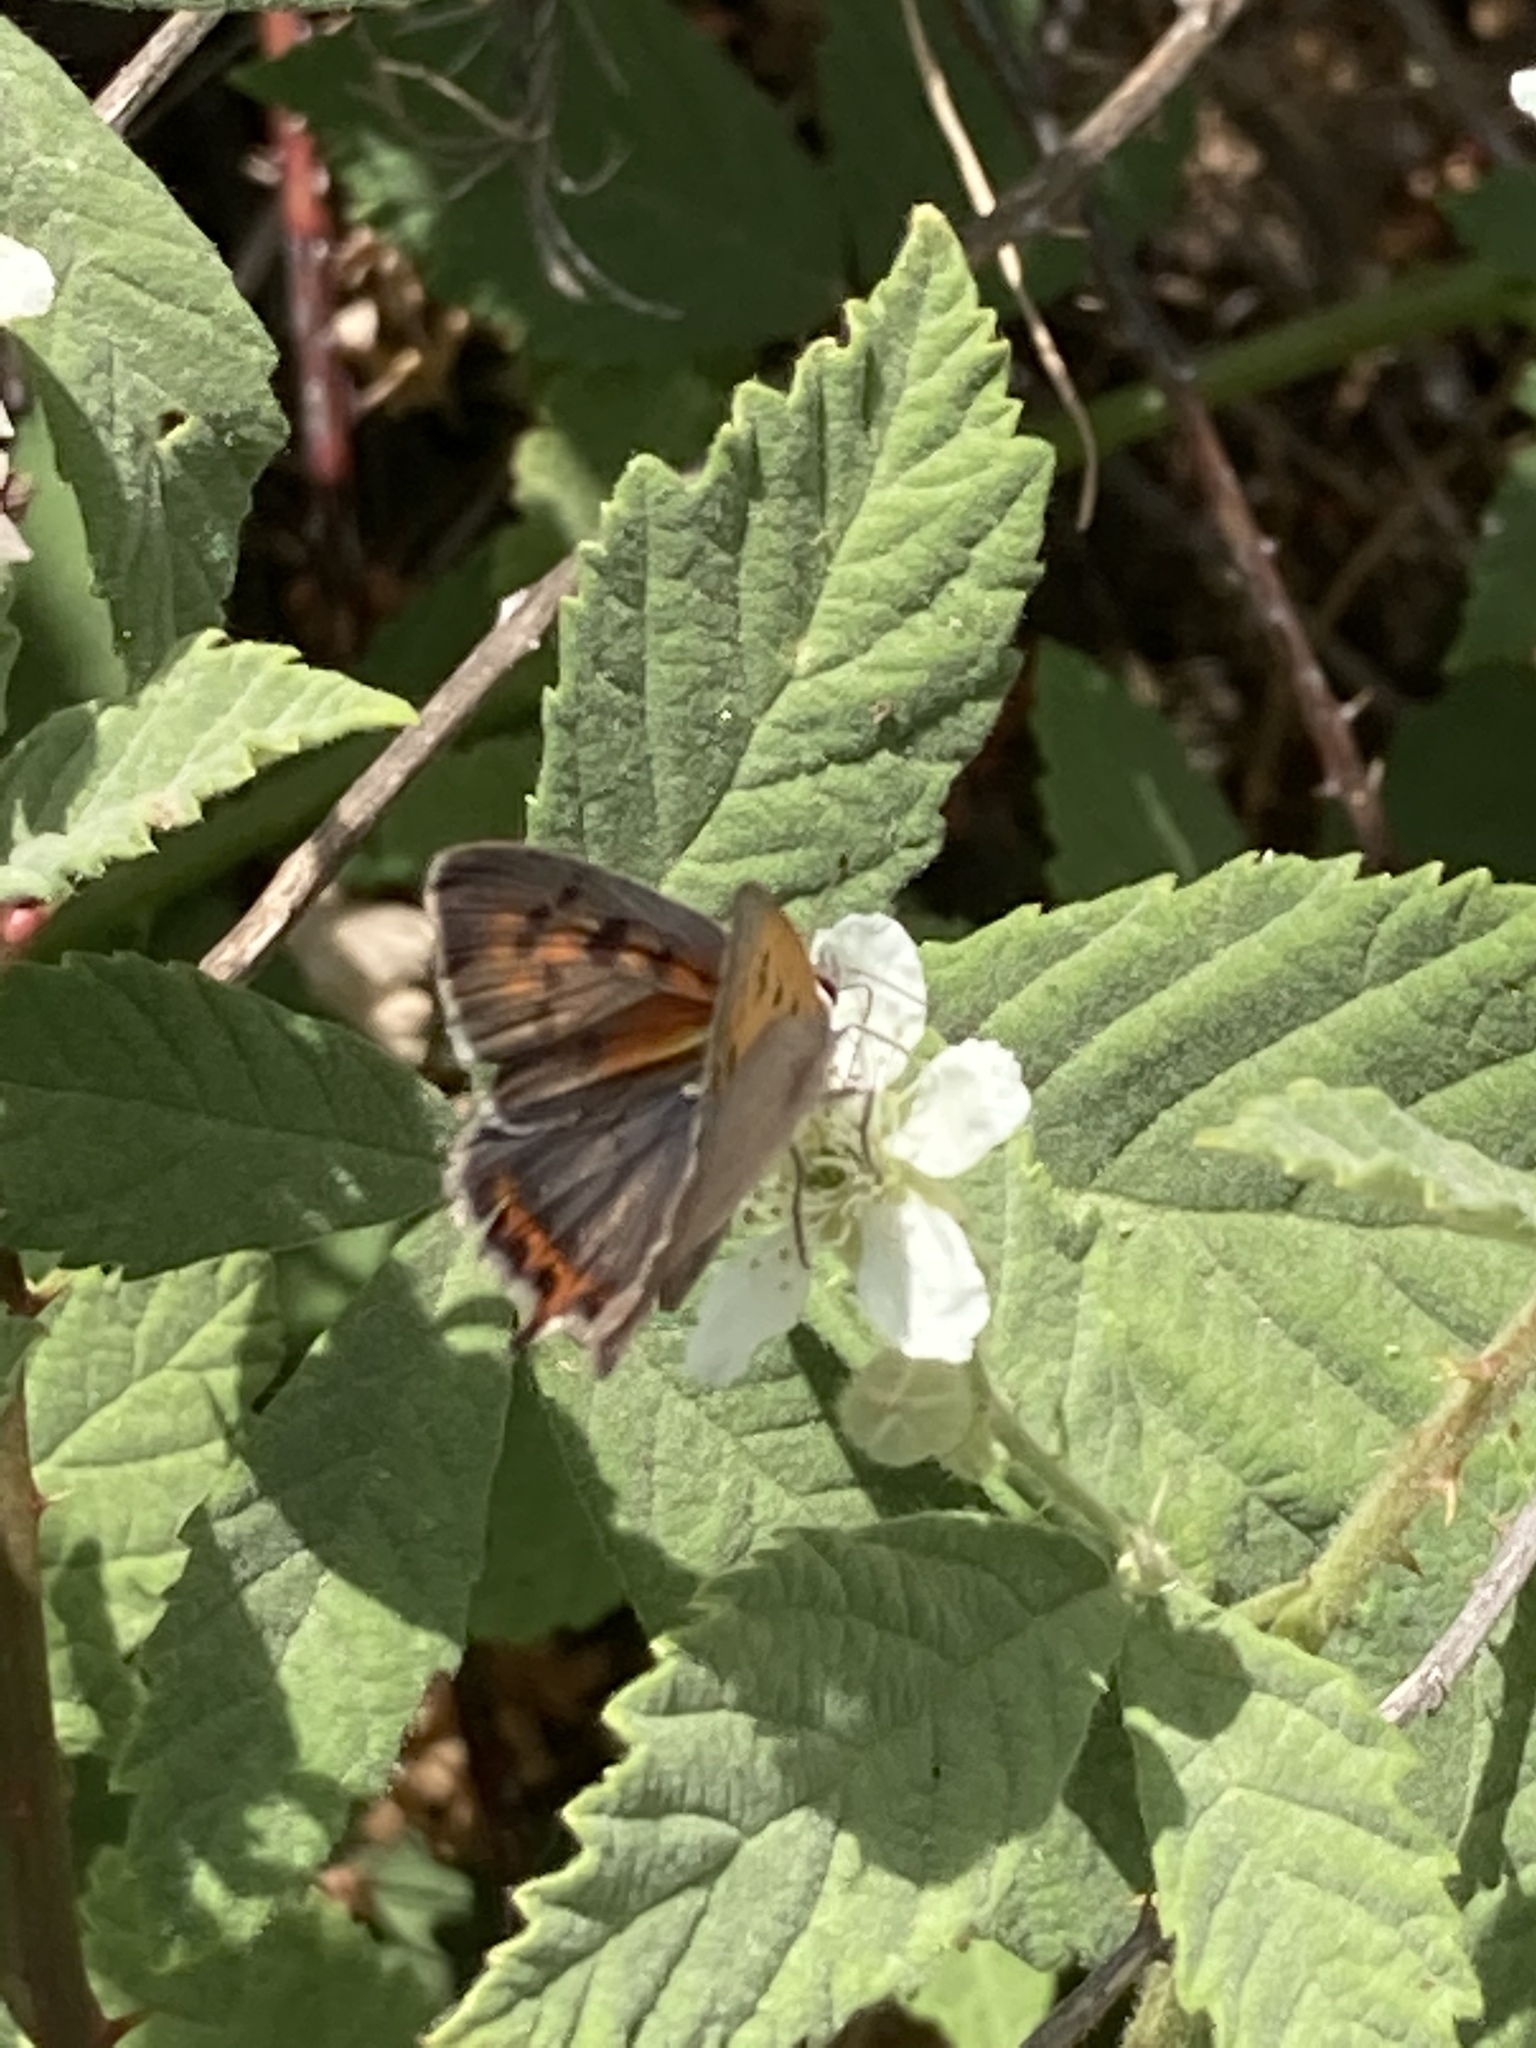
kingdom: Animalia
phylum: Arthropoda
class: Insecta
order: Lepidoptera
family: Lycaenidae
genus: Lycaena
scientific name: Lycaena phlaeas
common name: Small copper
